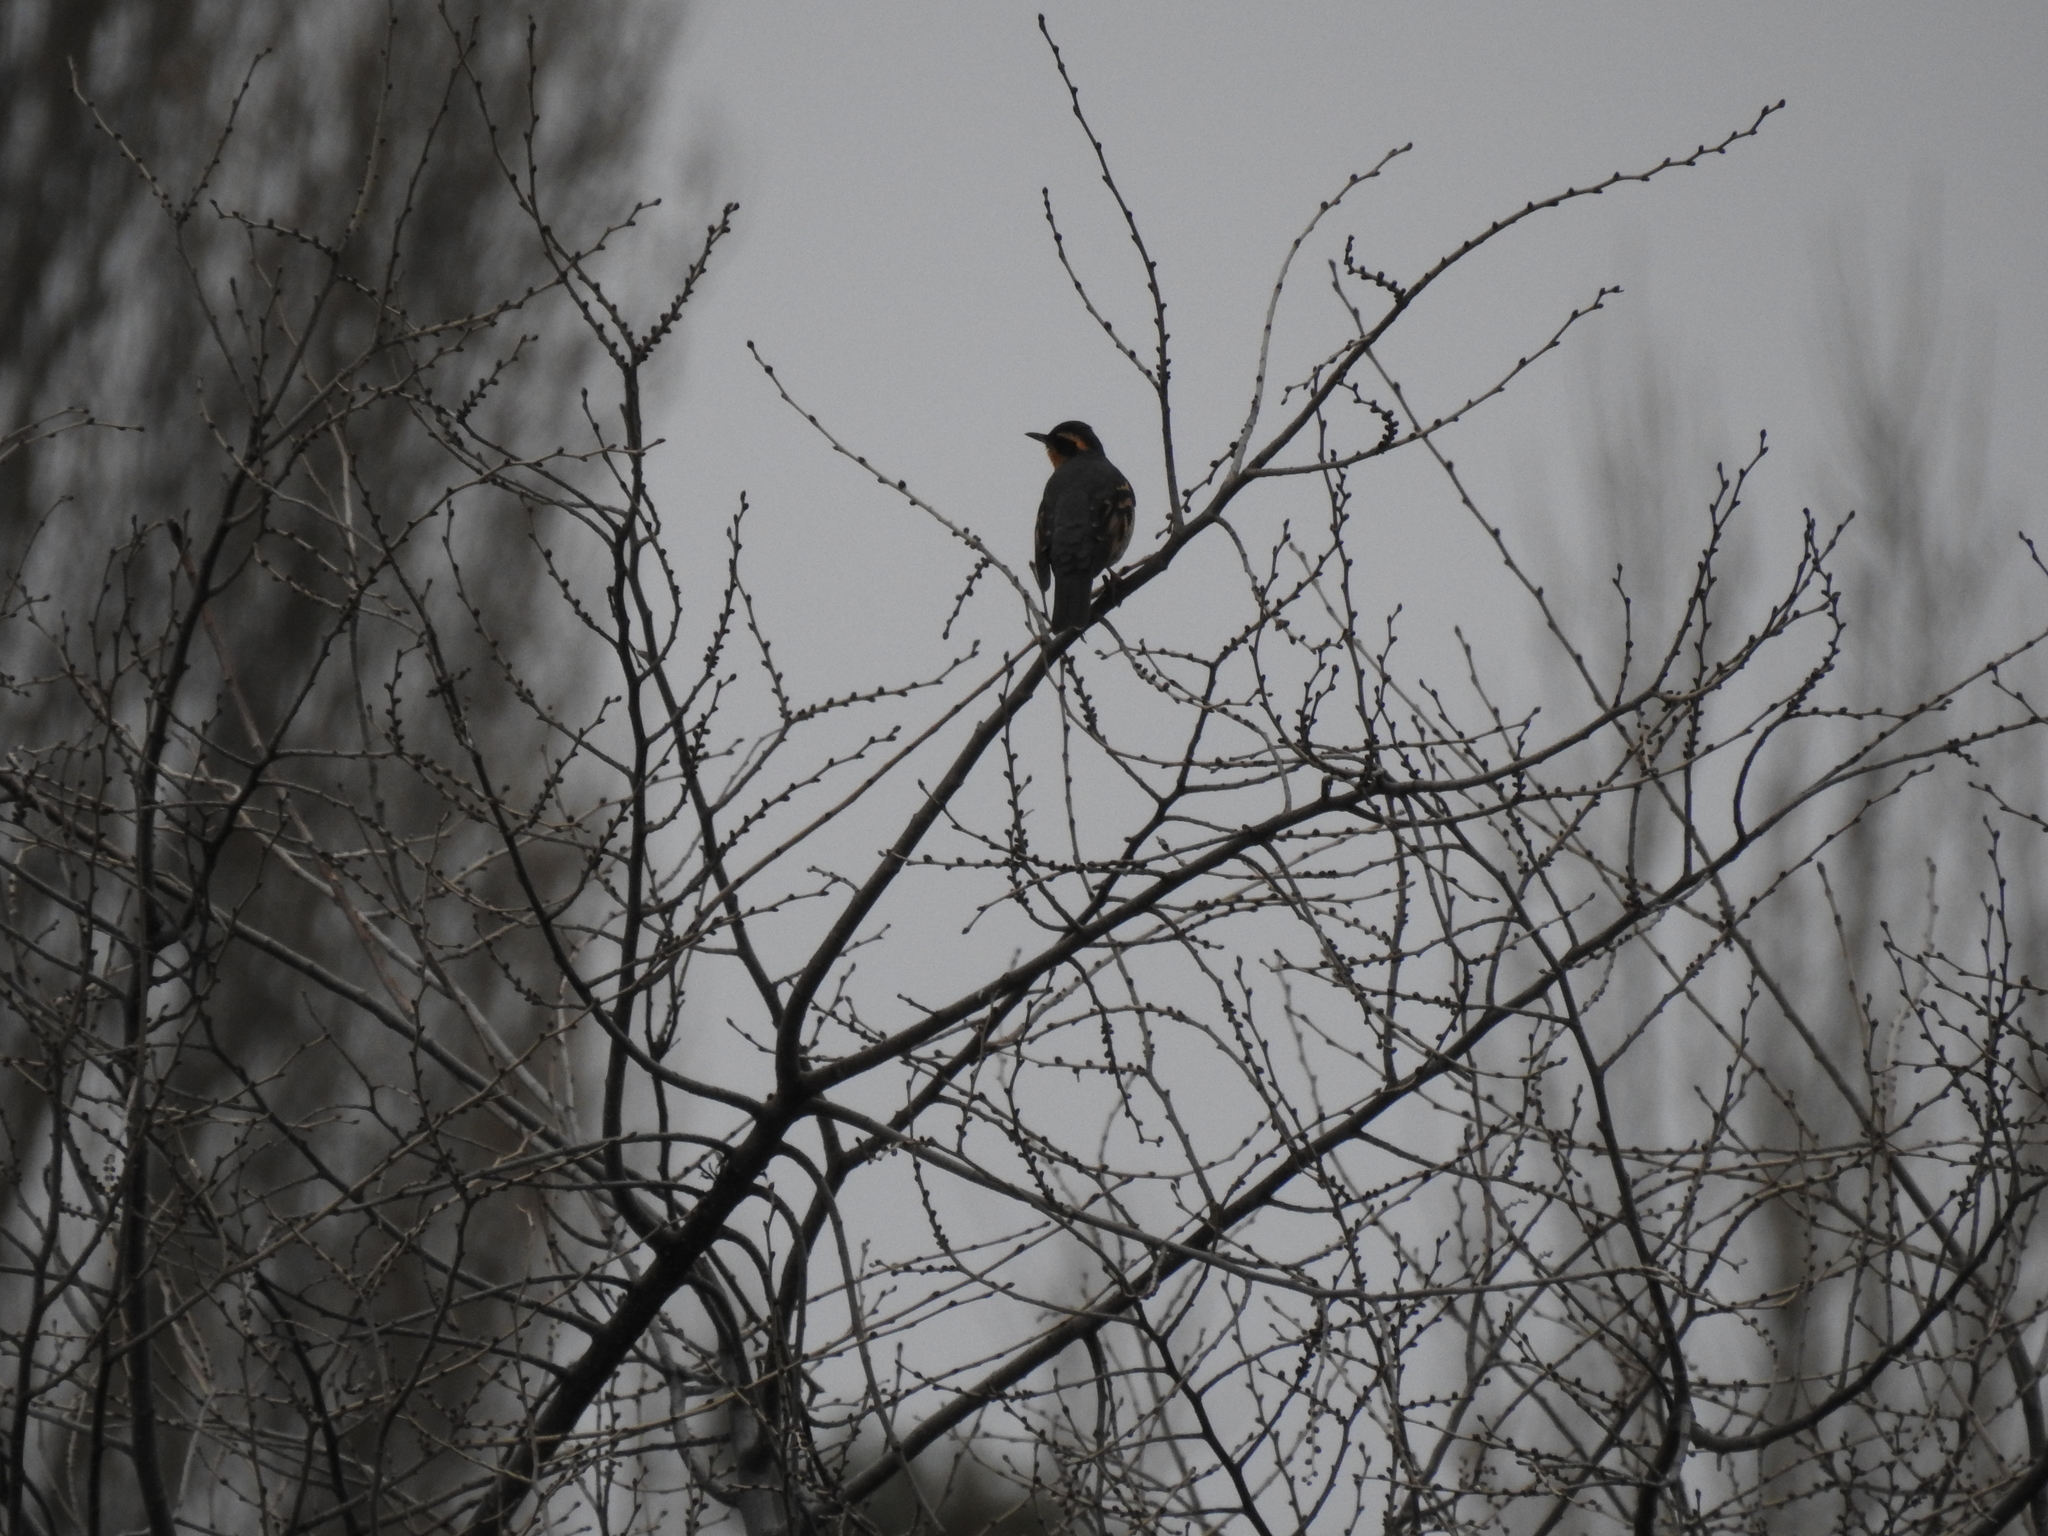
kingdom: Animalia
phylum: Chordata
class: Aves
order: Passeriformes
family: Turdidae
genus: Ixoreus
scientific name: Ixoreus naevius
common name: Varied thrush
